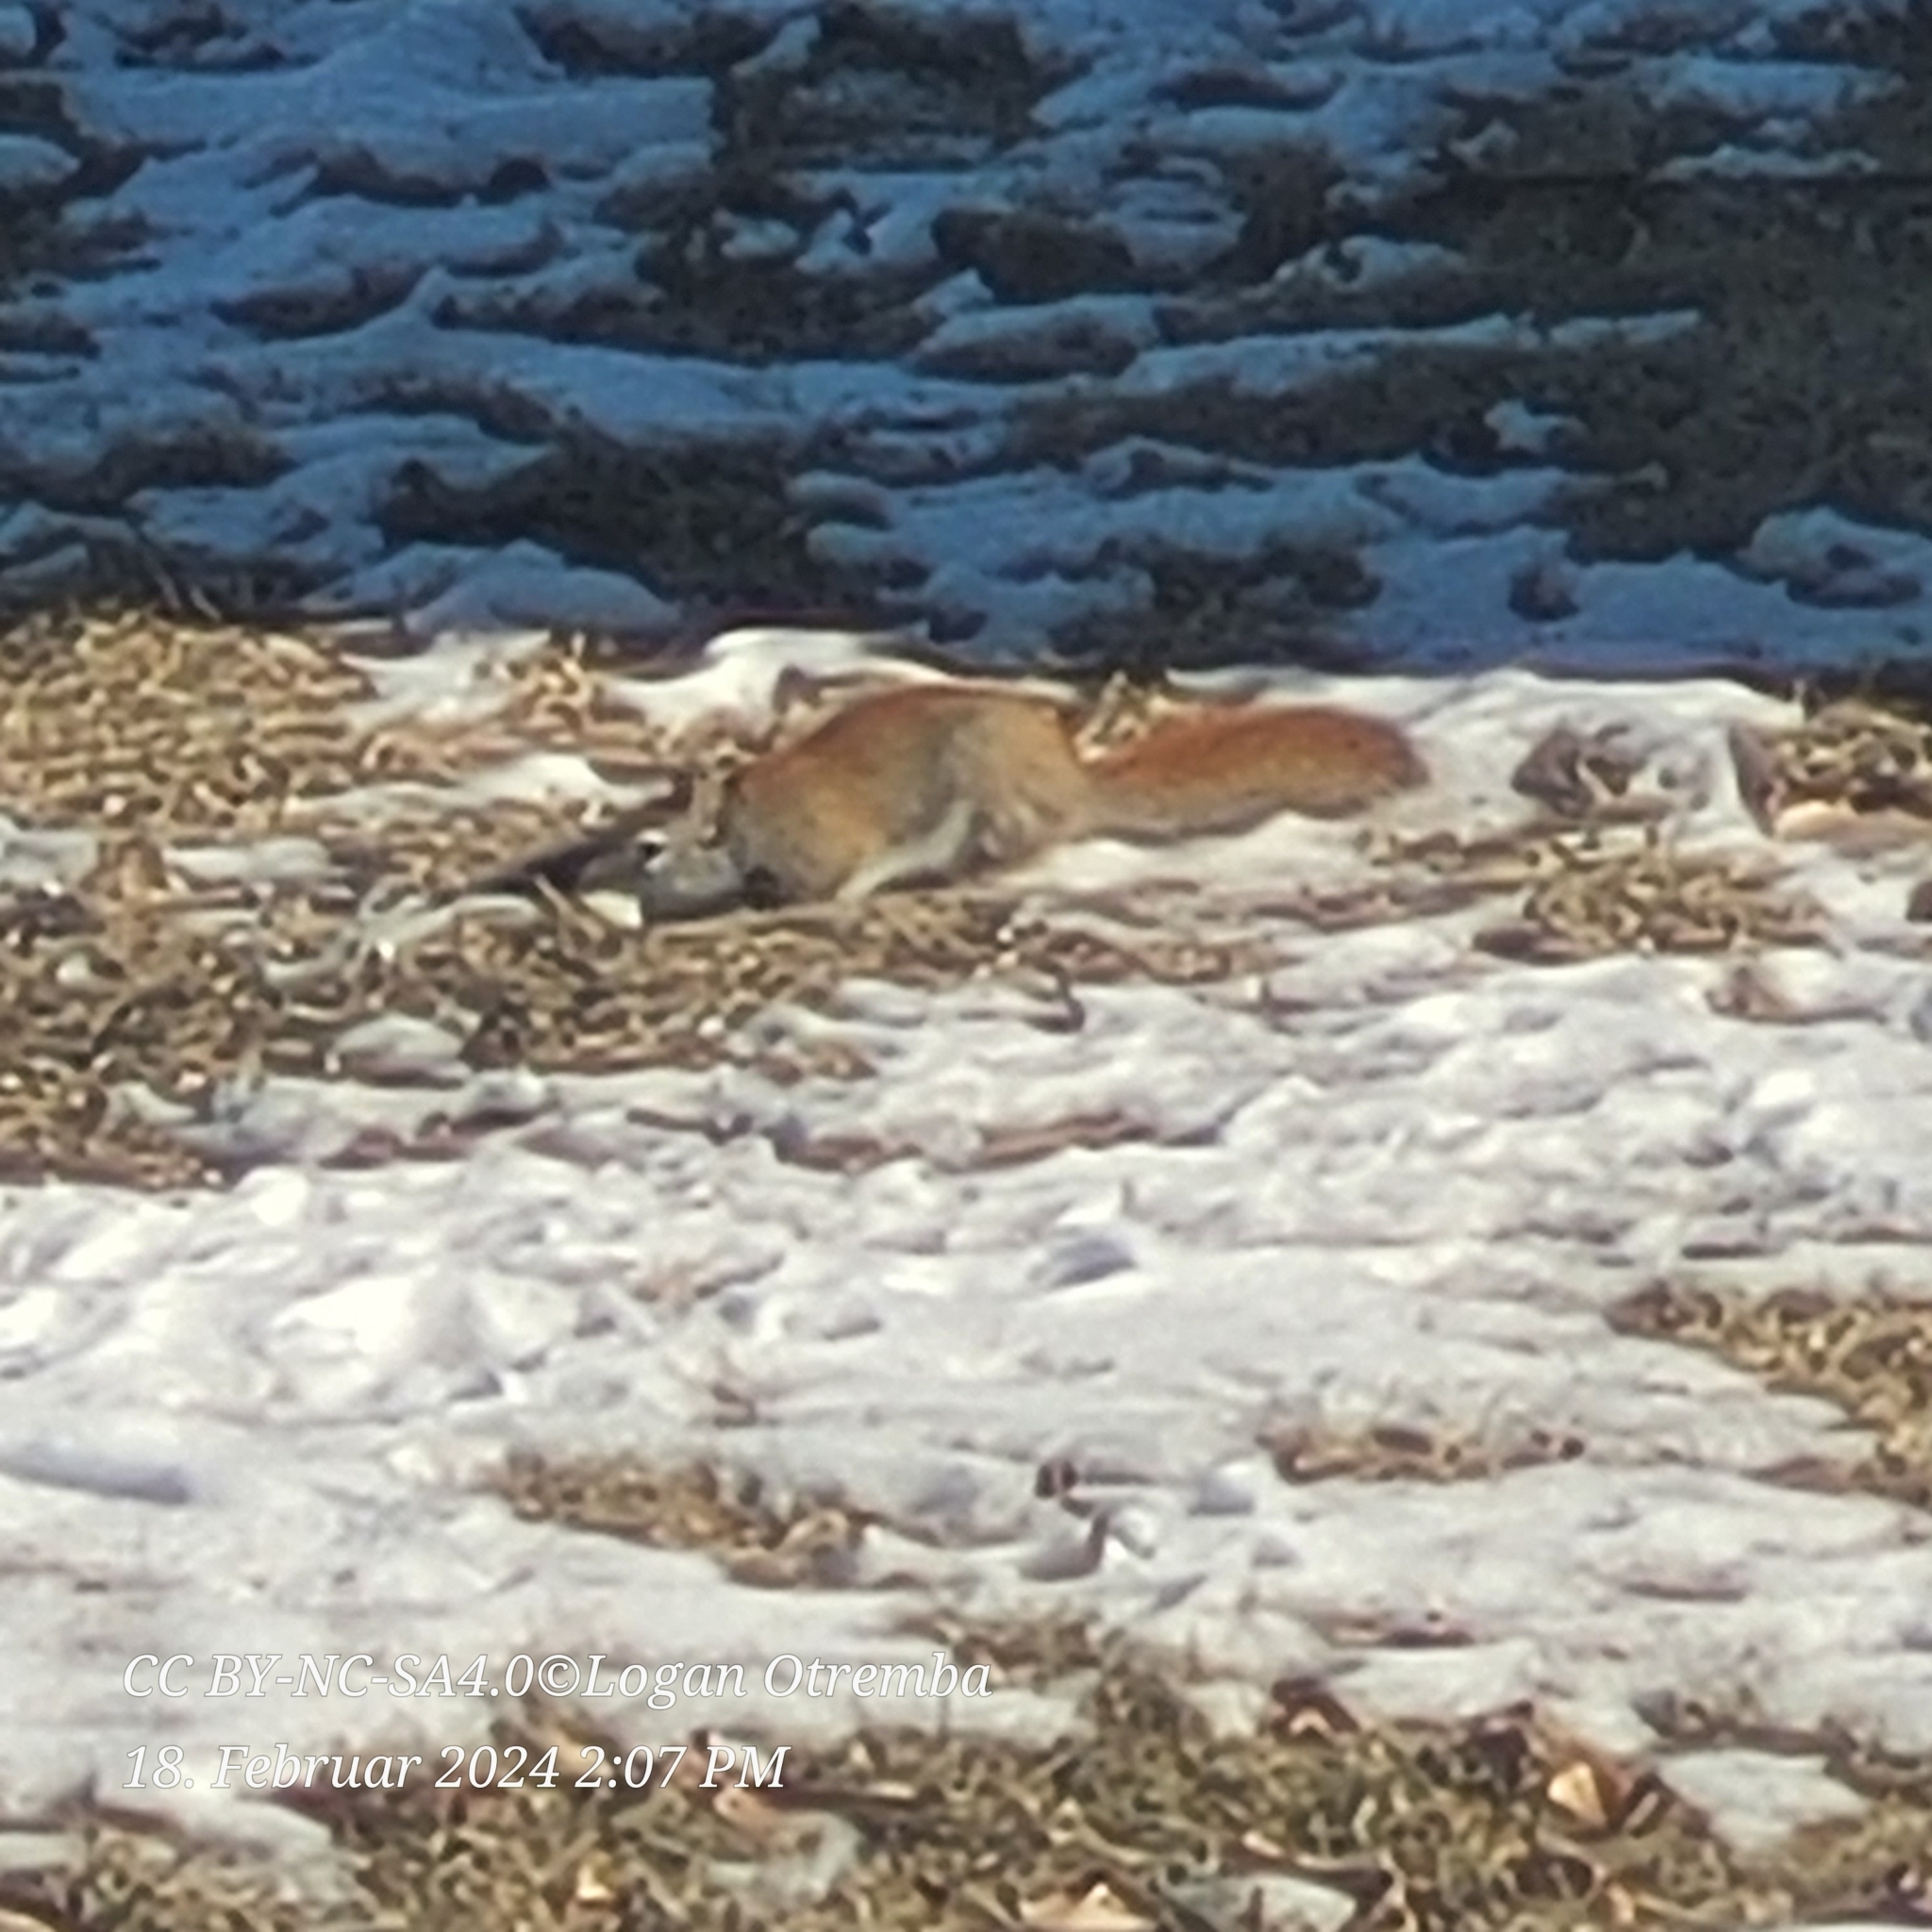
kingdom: Animalia
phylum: Chordata
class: Mammalia
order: Rodentia
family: Sciuridae
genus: Tamiasciurus
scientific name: Tamiasciurus hudsonicus
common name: Red squirrel
